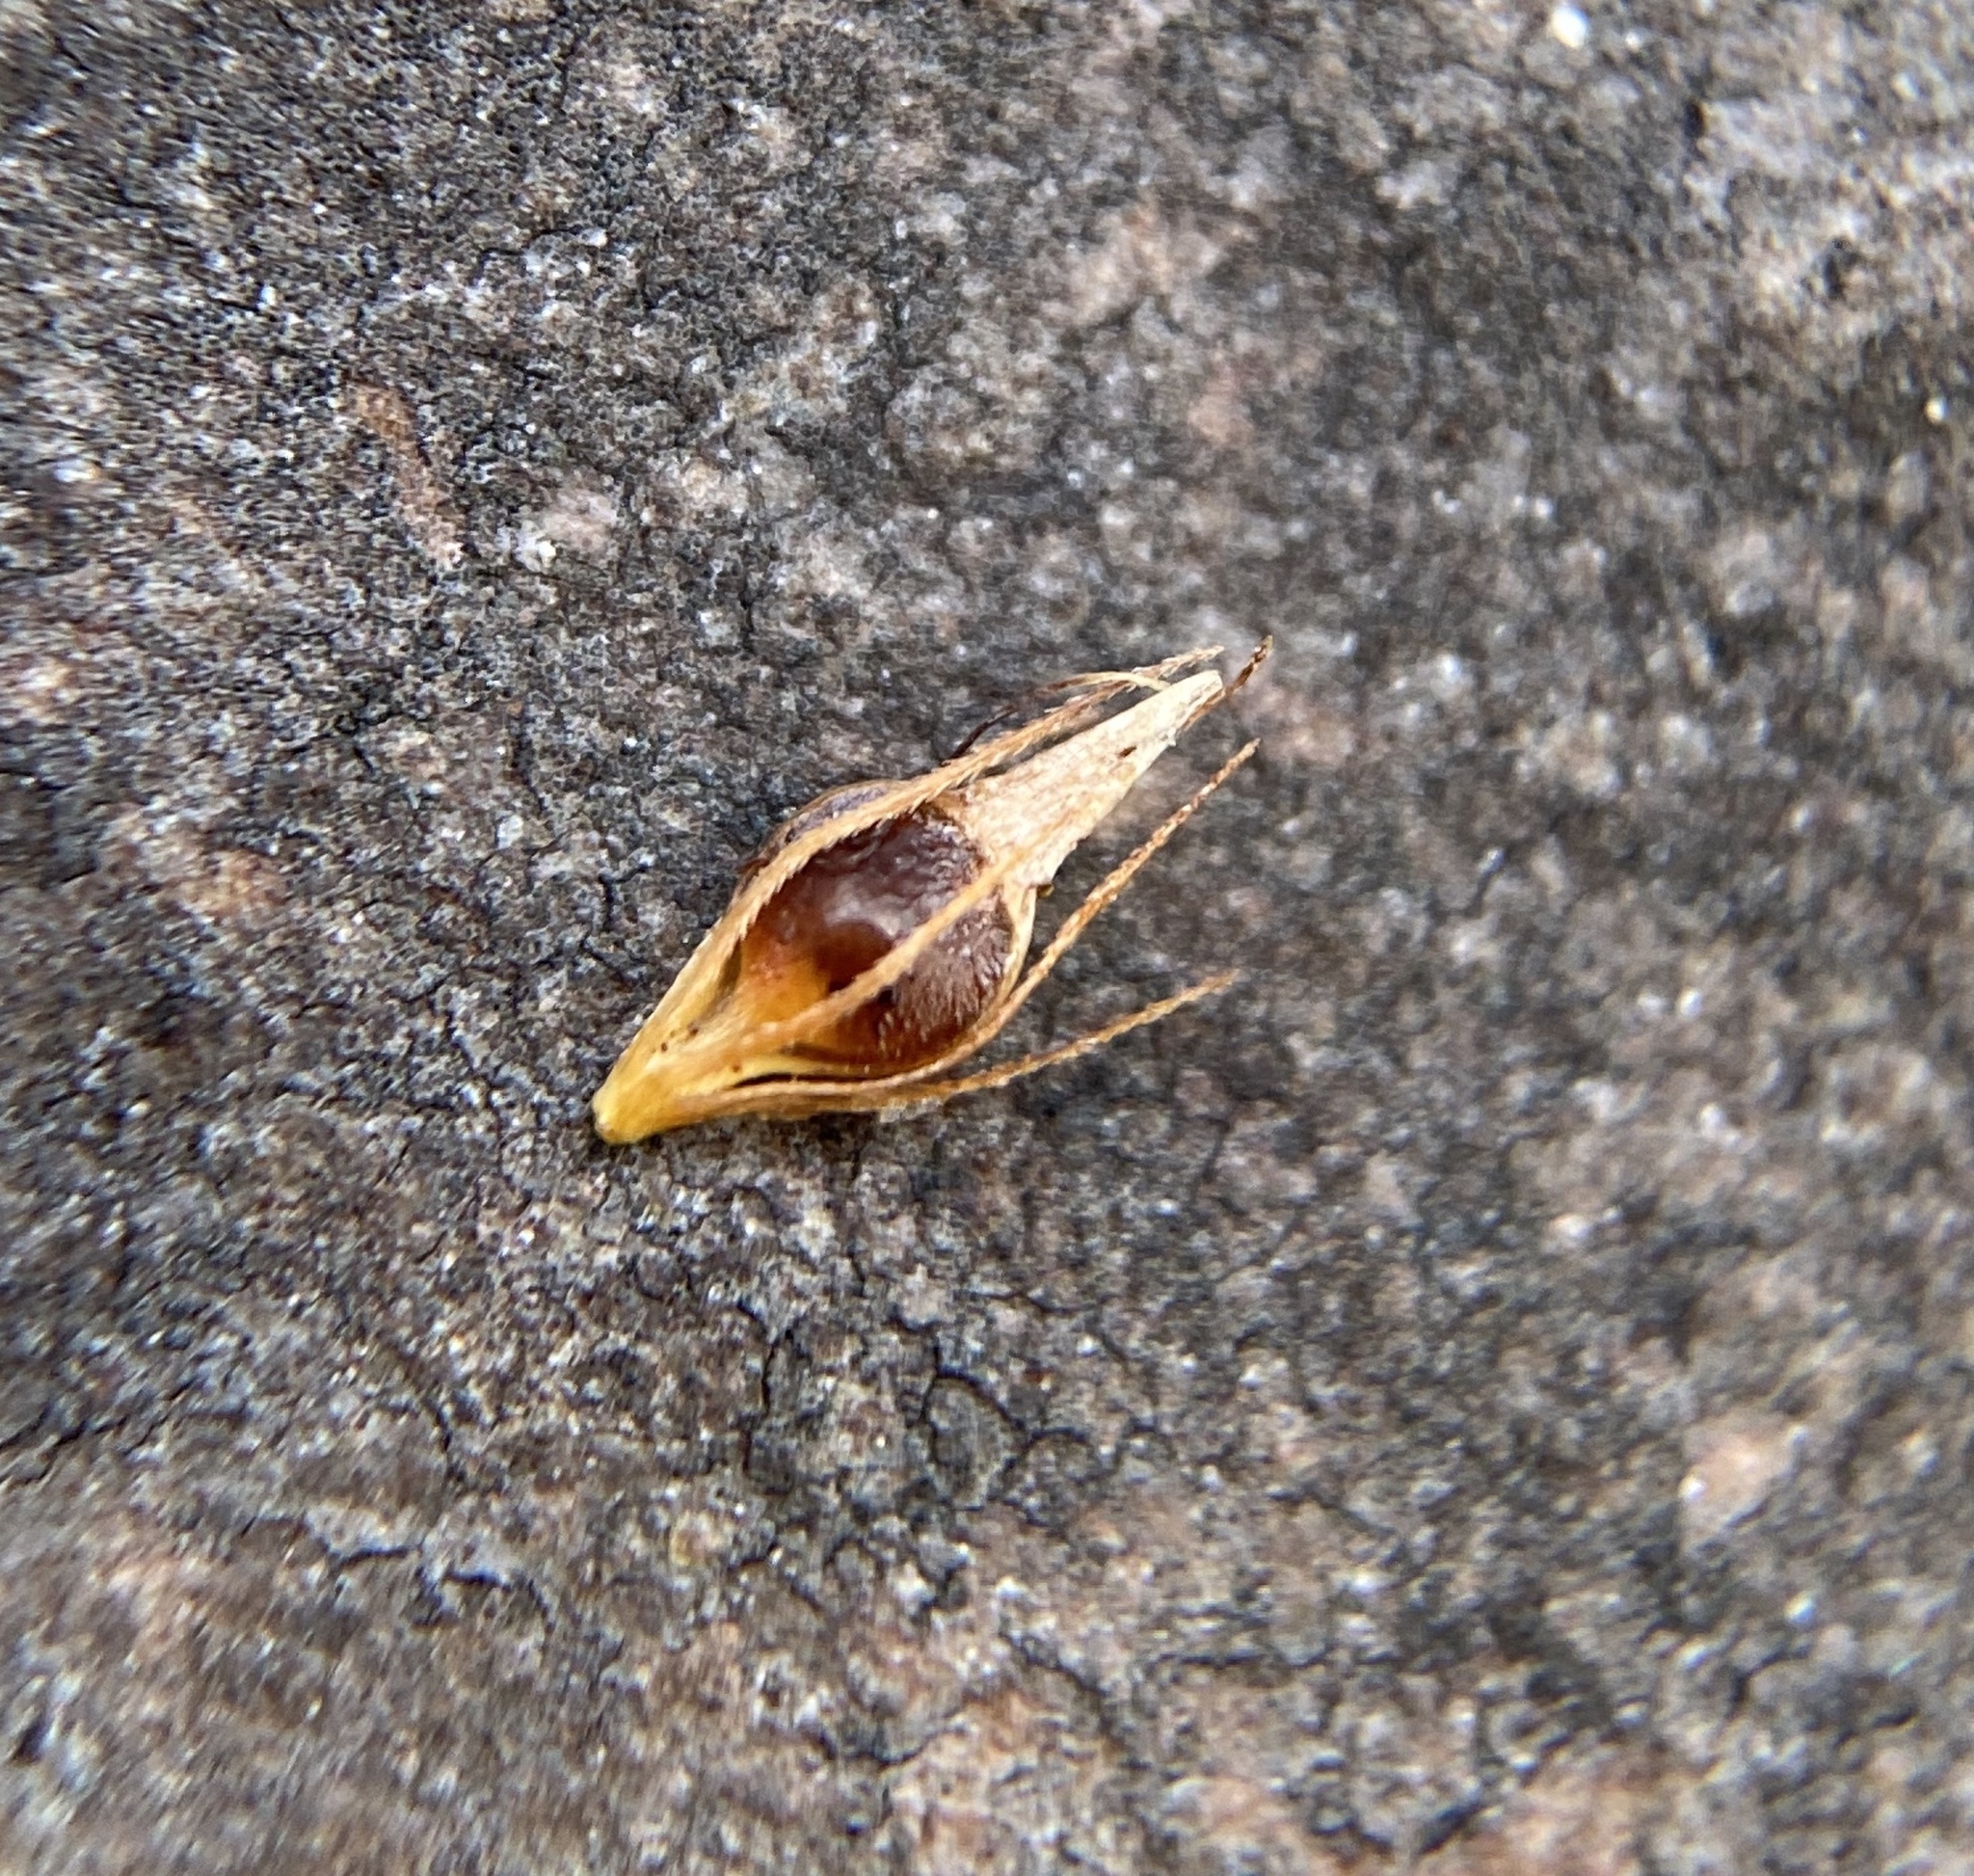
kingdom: Plantae
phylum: Tracheophyta
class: Liliopsida
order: Poales
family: Cyperaceae
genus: Rhynchospora
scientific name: Rhynchospora glomerata
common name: Cluster beak sedge
